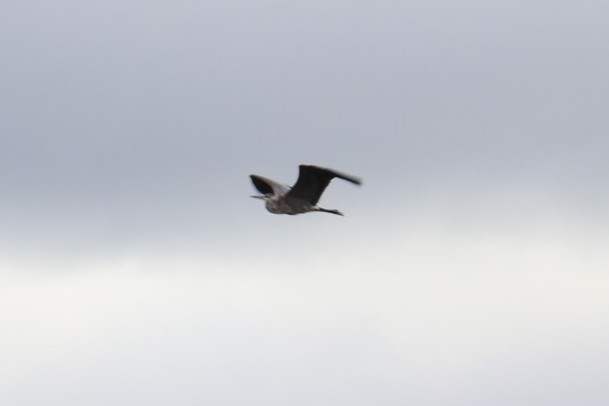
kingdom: Animalia
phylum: Chordata
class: Aves
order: Pelecaniformes
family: Ardeidae
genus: Ardea
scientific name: Ardea herodias
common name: Great blue heron
